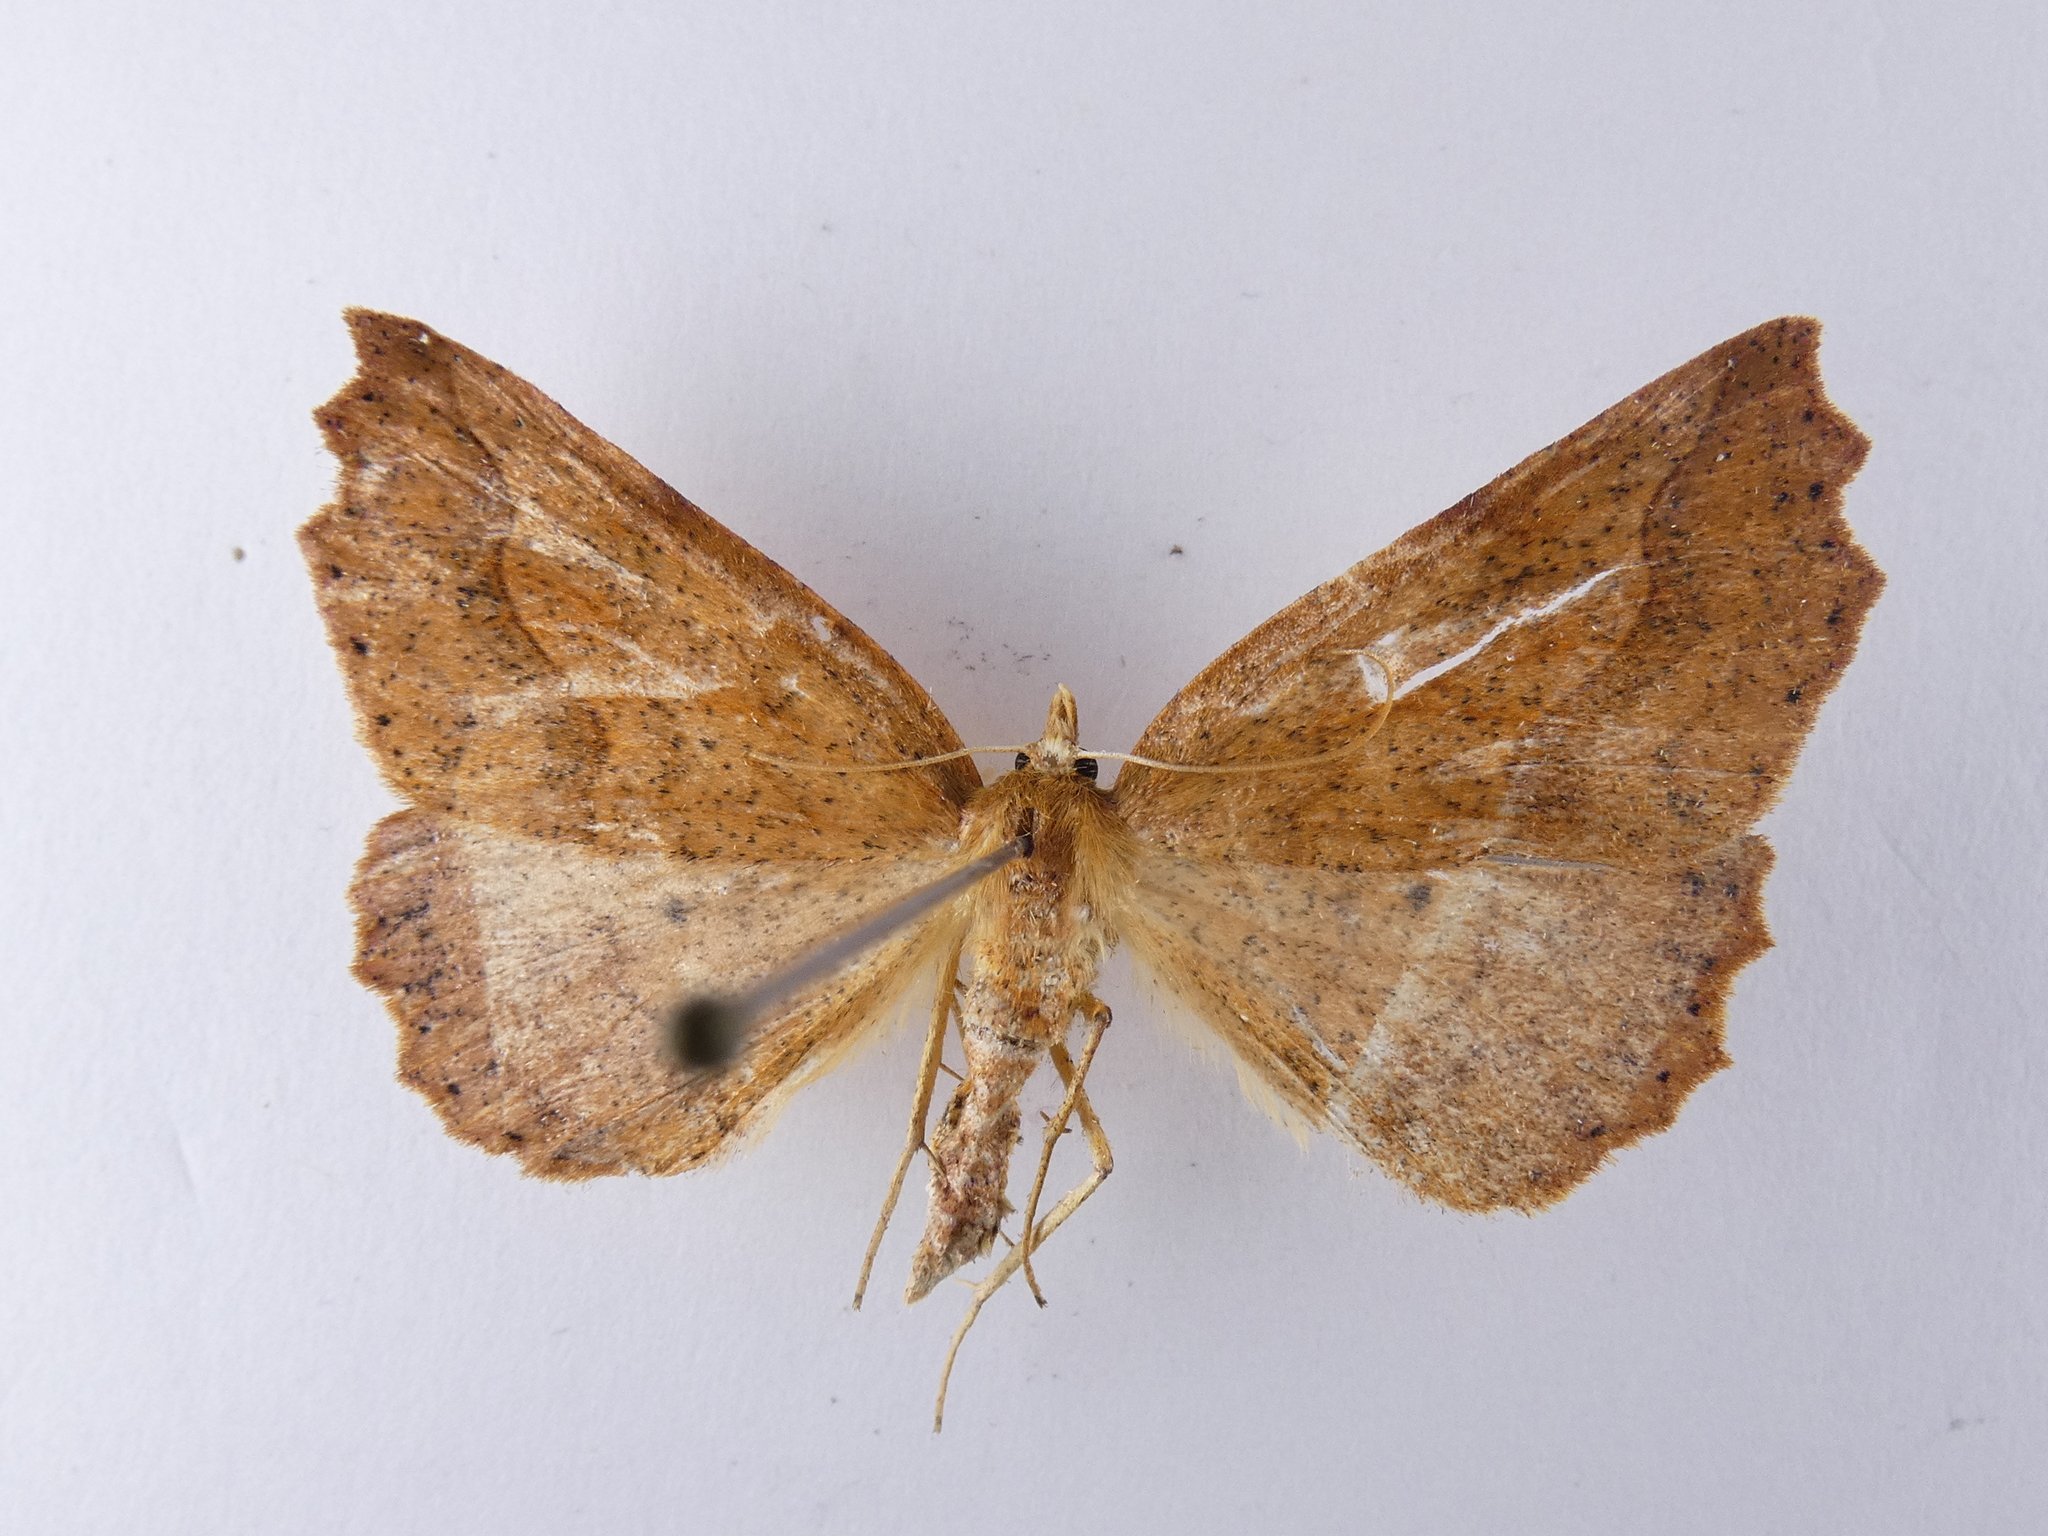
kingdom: Animalia
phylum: Arthropoda
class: Insecta
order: Lepidoptera
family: Geometridae
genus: Ischalis
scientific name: Ischalis variabilis
